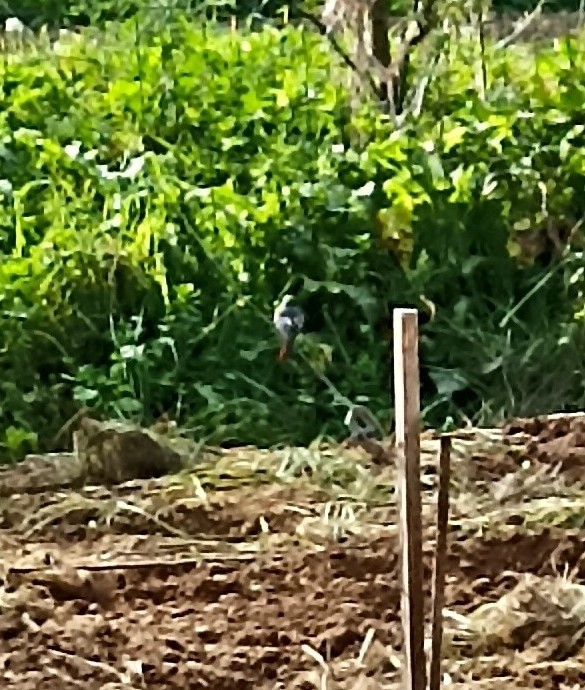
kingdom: Animalia
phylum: Chordata
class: Aves
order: Passeriformes
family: Muscicapidae
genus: Phoenicurus
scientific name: Phoenicurus ochruros
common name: Black redstart
